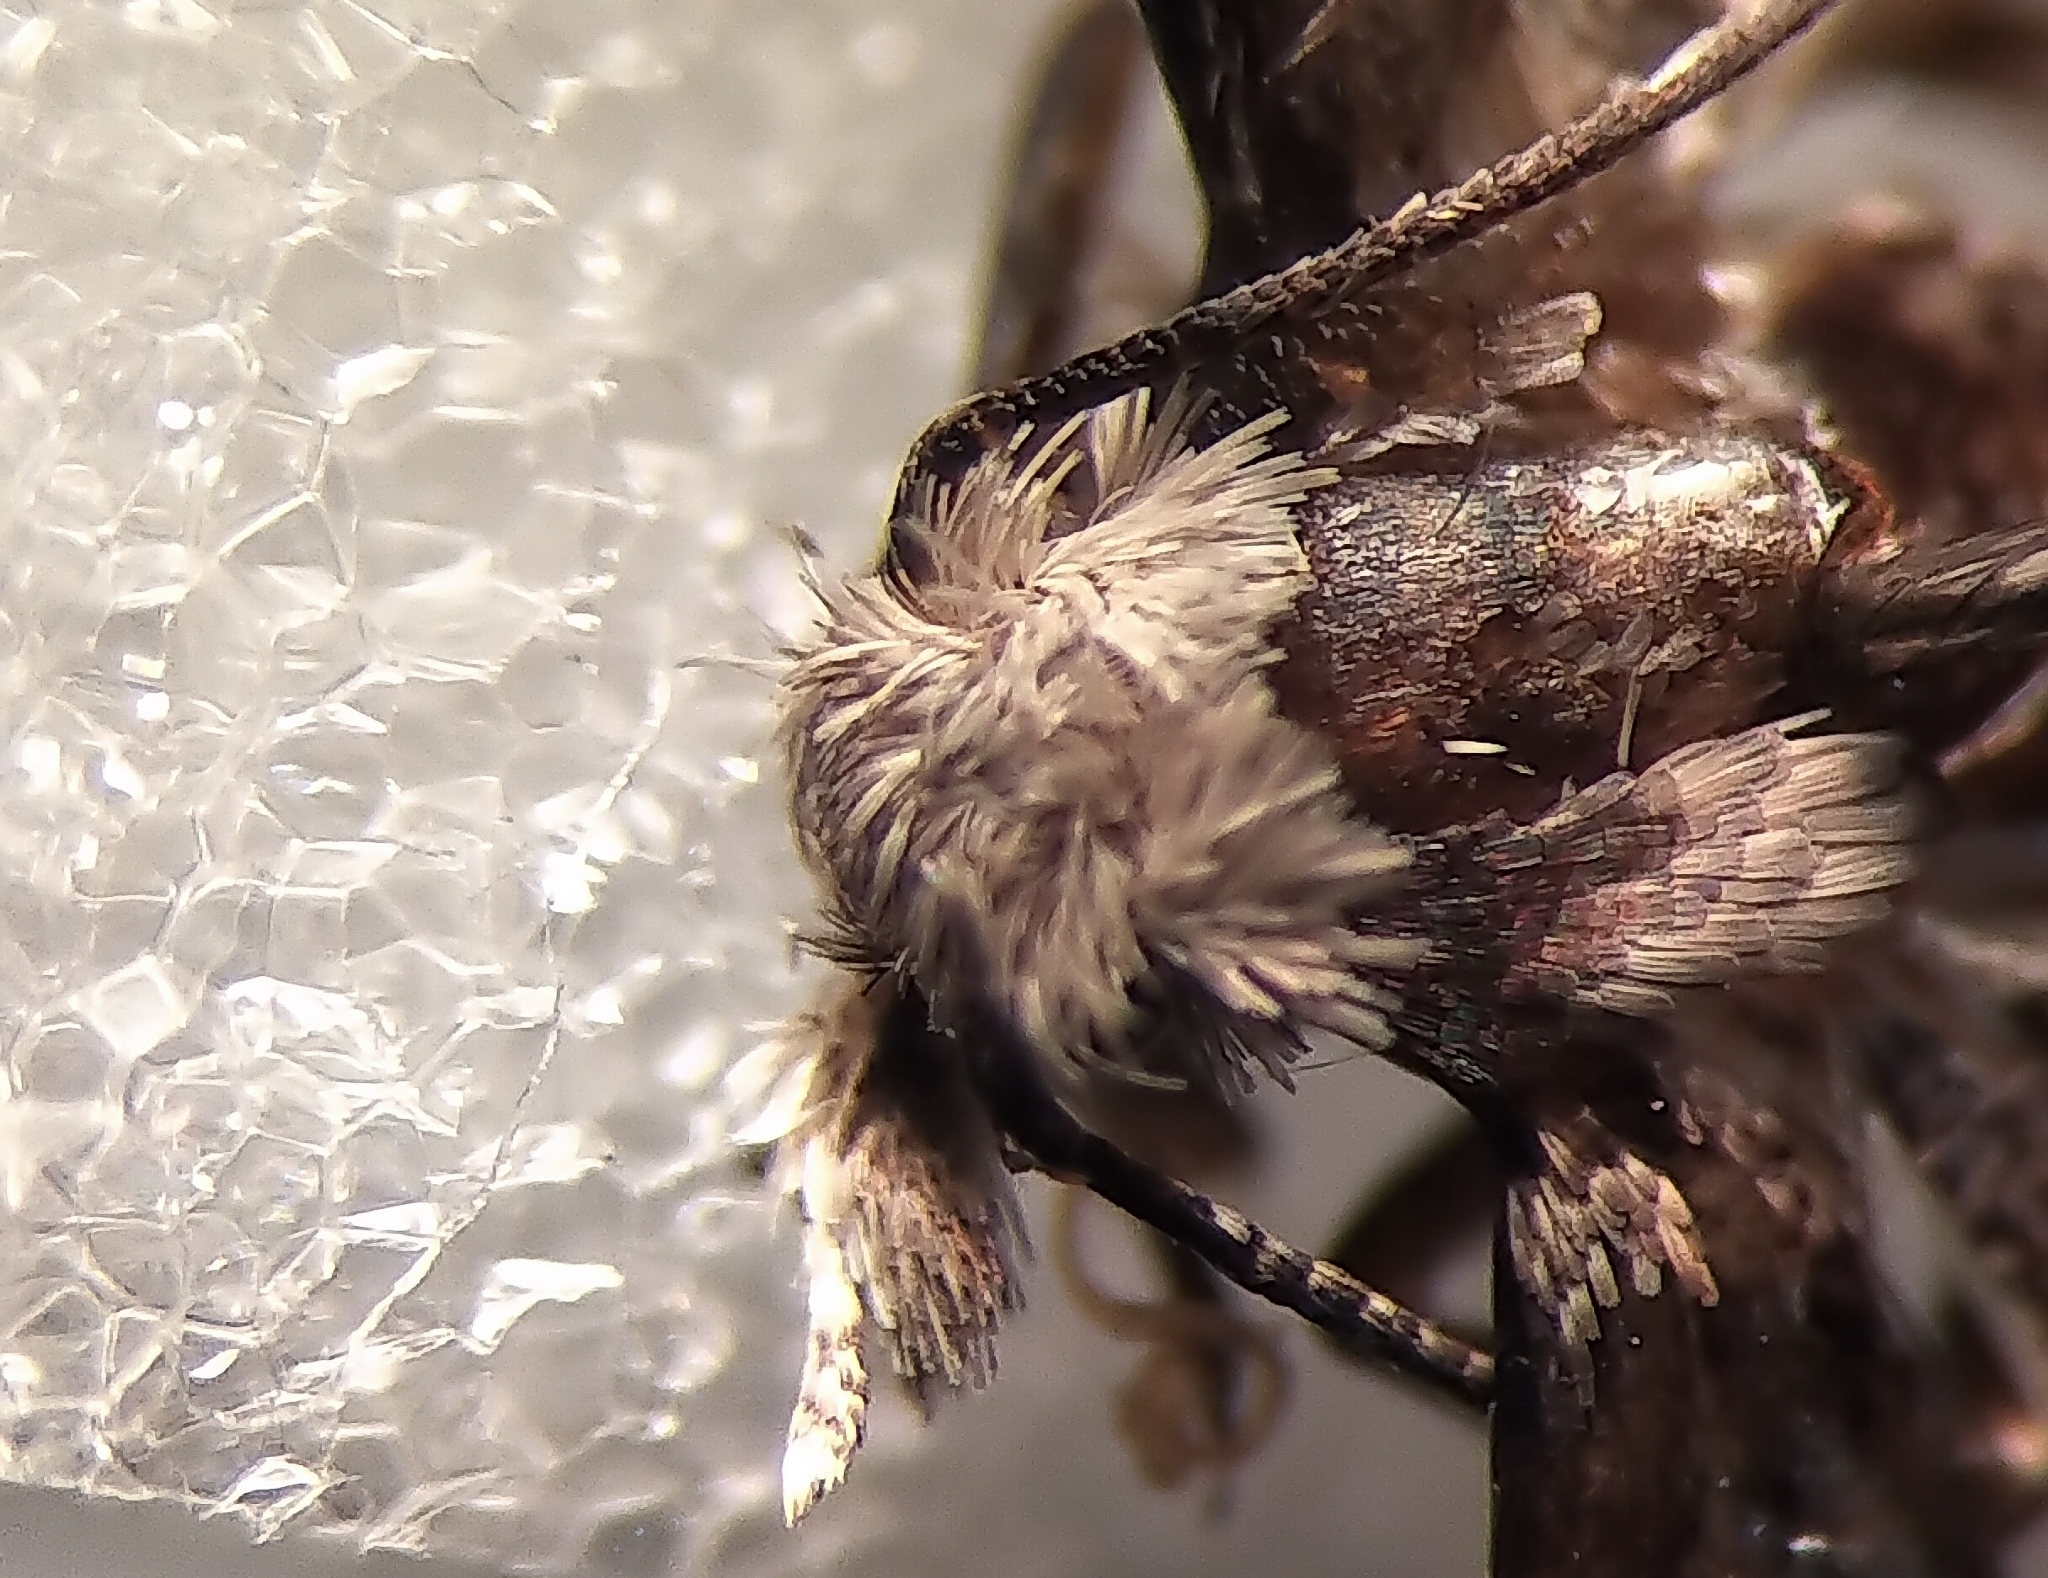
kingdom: Animalia
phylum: Arthropoda
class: Insecta
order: Lepidoptera
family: Alucitidae
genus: Alucita
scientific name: Alucita adriendenisi
